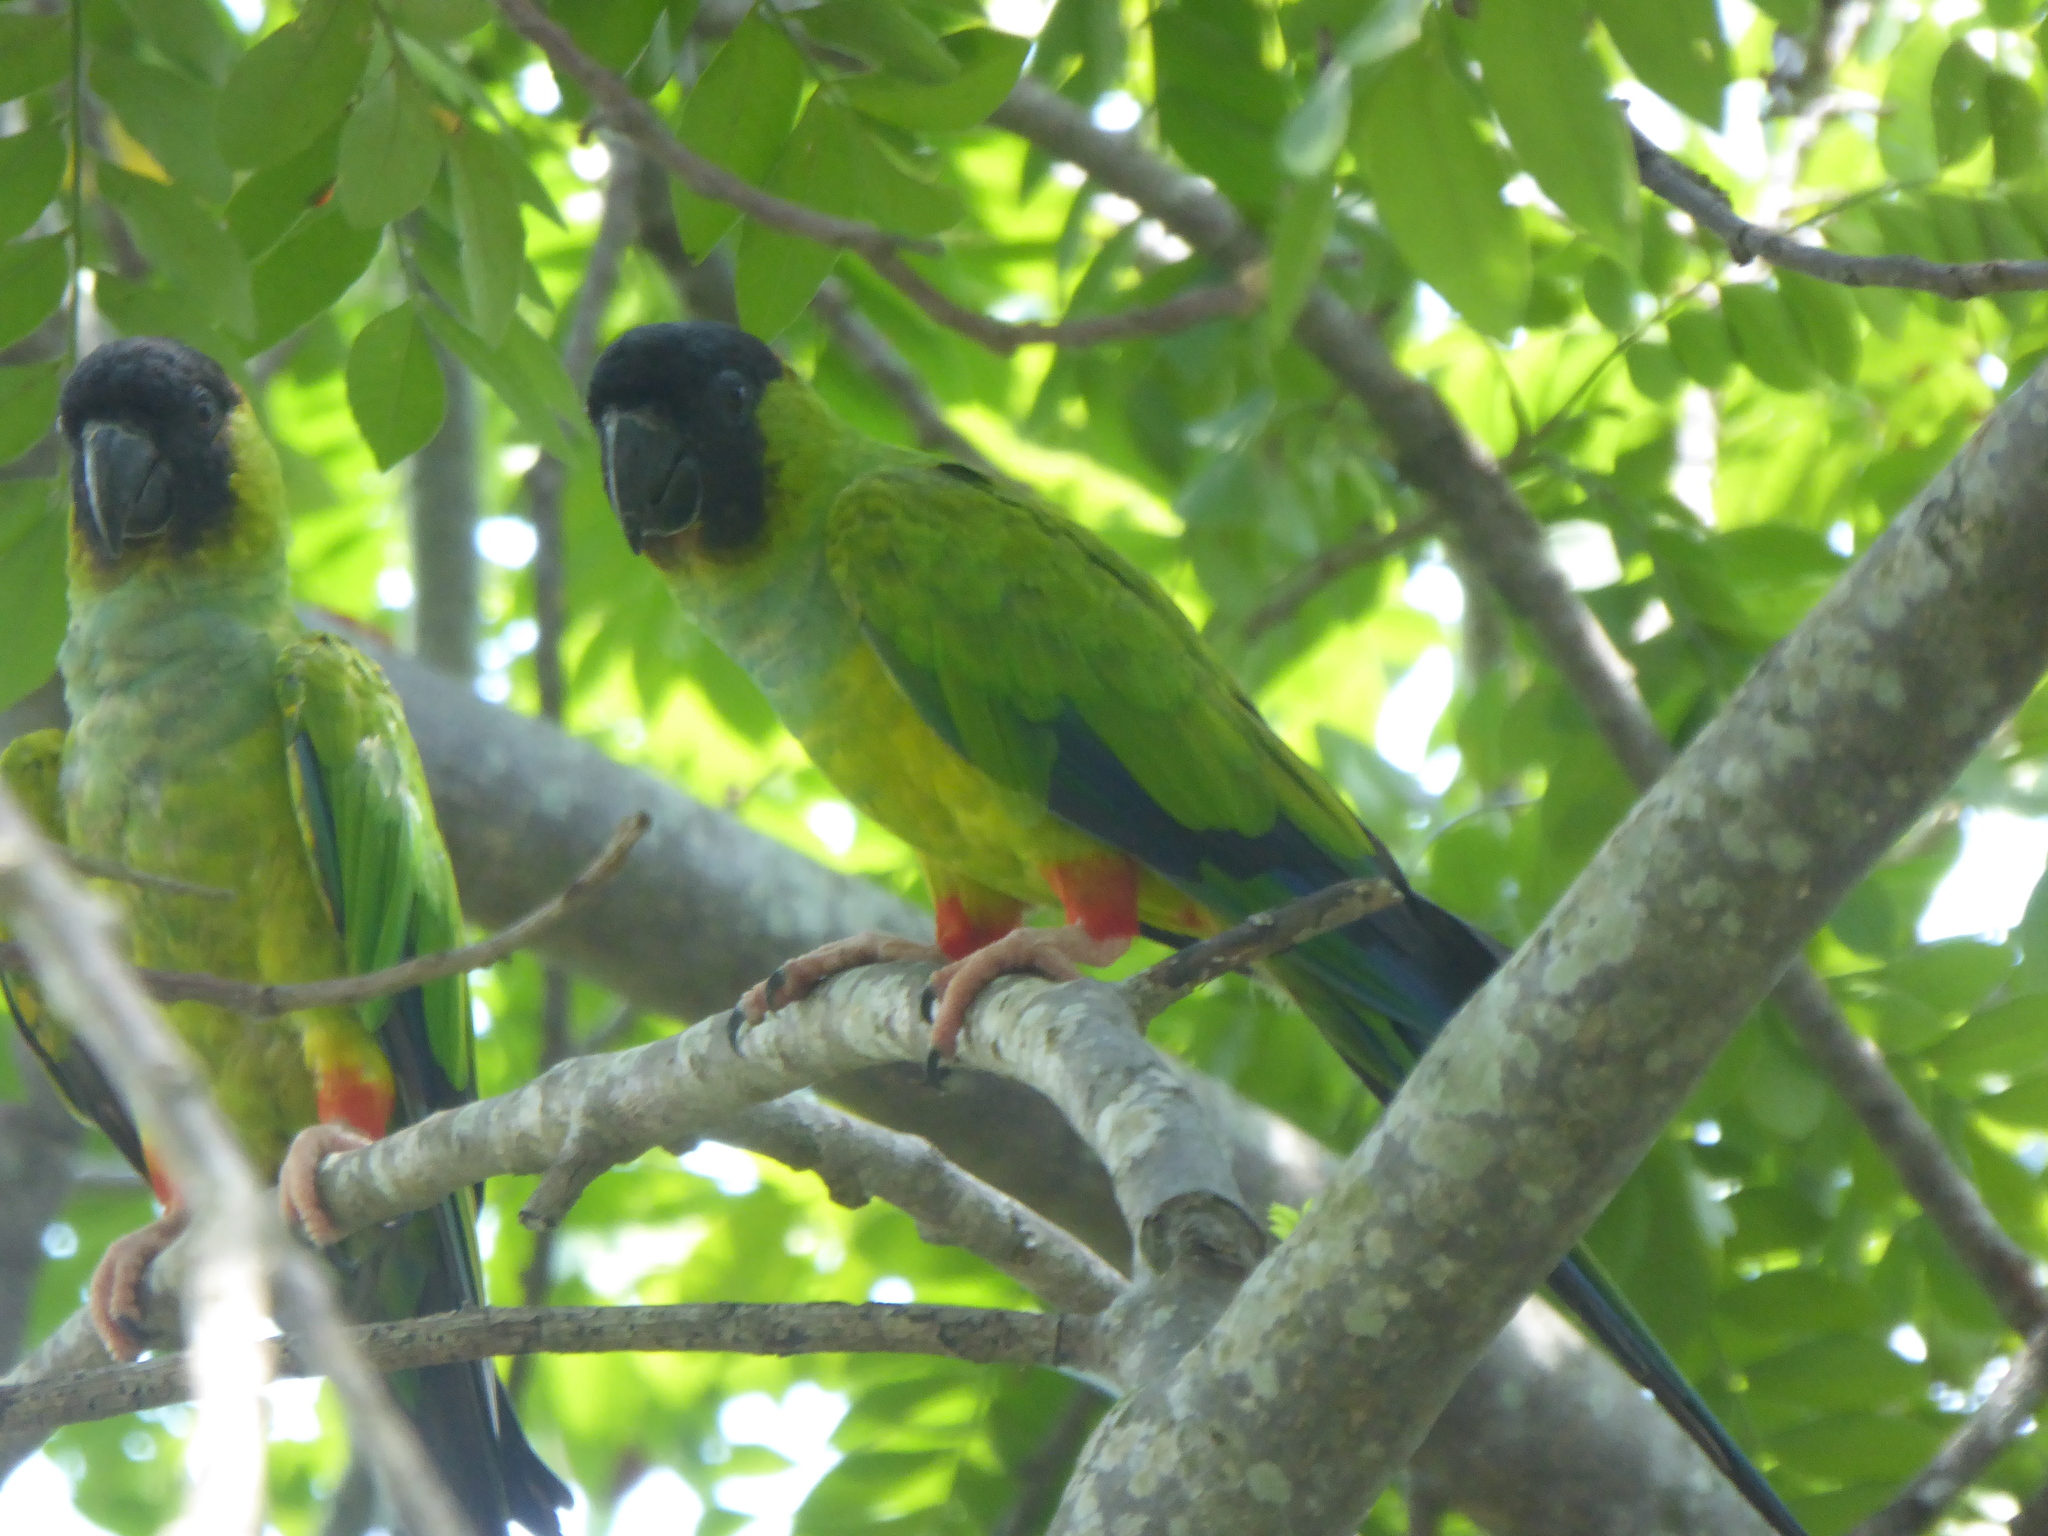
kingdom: Animalia
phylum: Chordata
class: Aves
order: Psittaciformes
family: Psittacidae
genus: Nandayus
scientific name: Nandayus nenday
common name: Nanday parakeet
